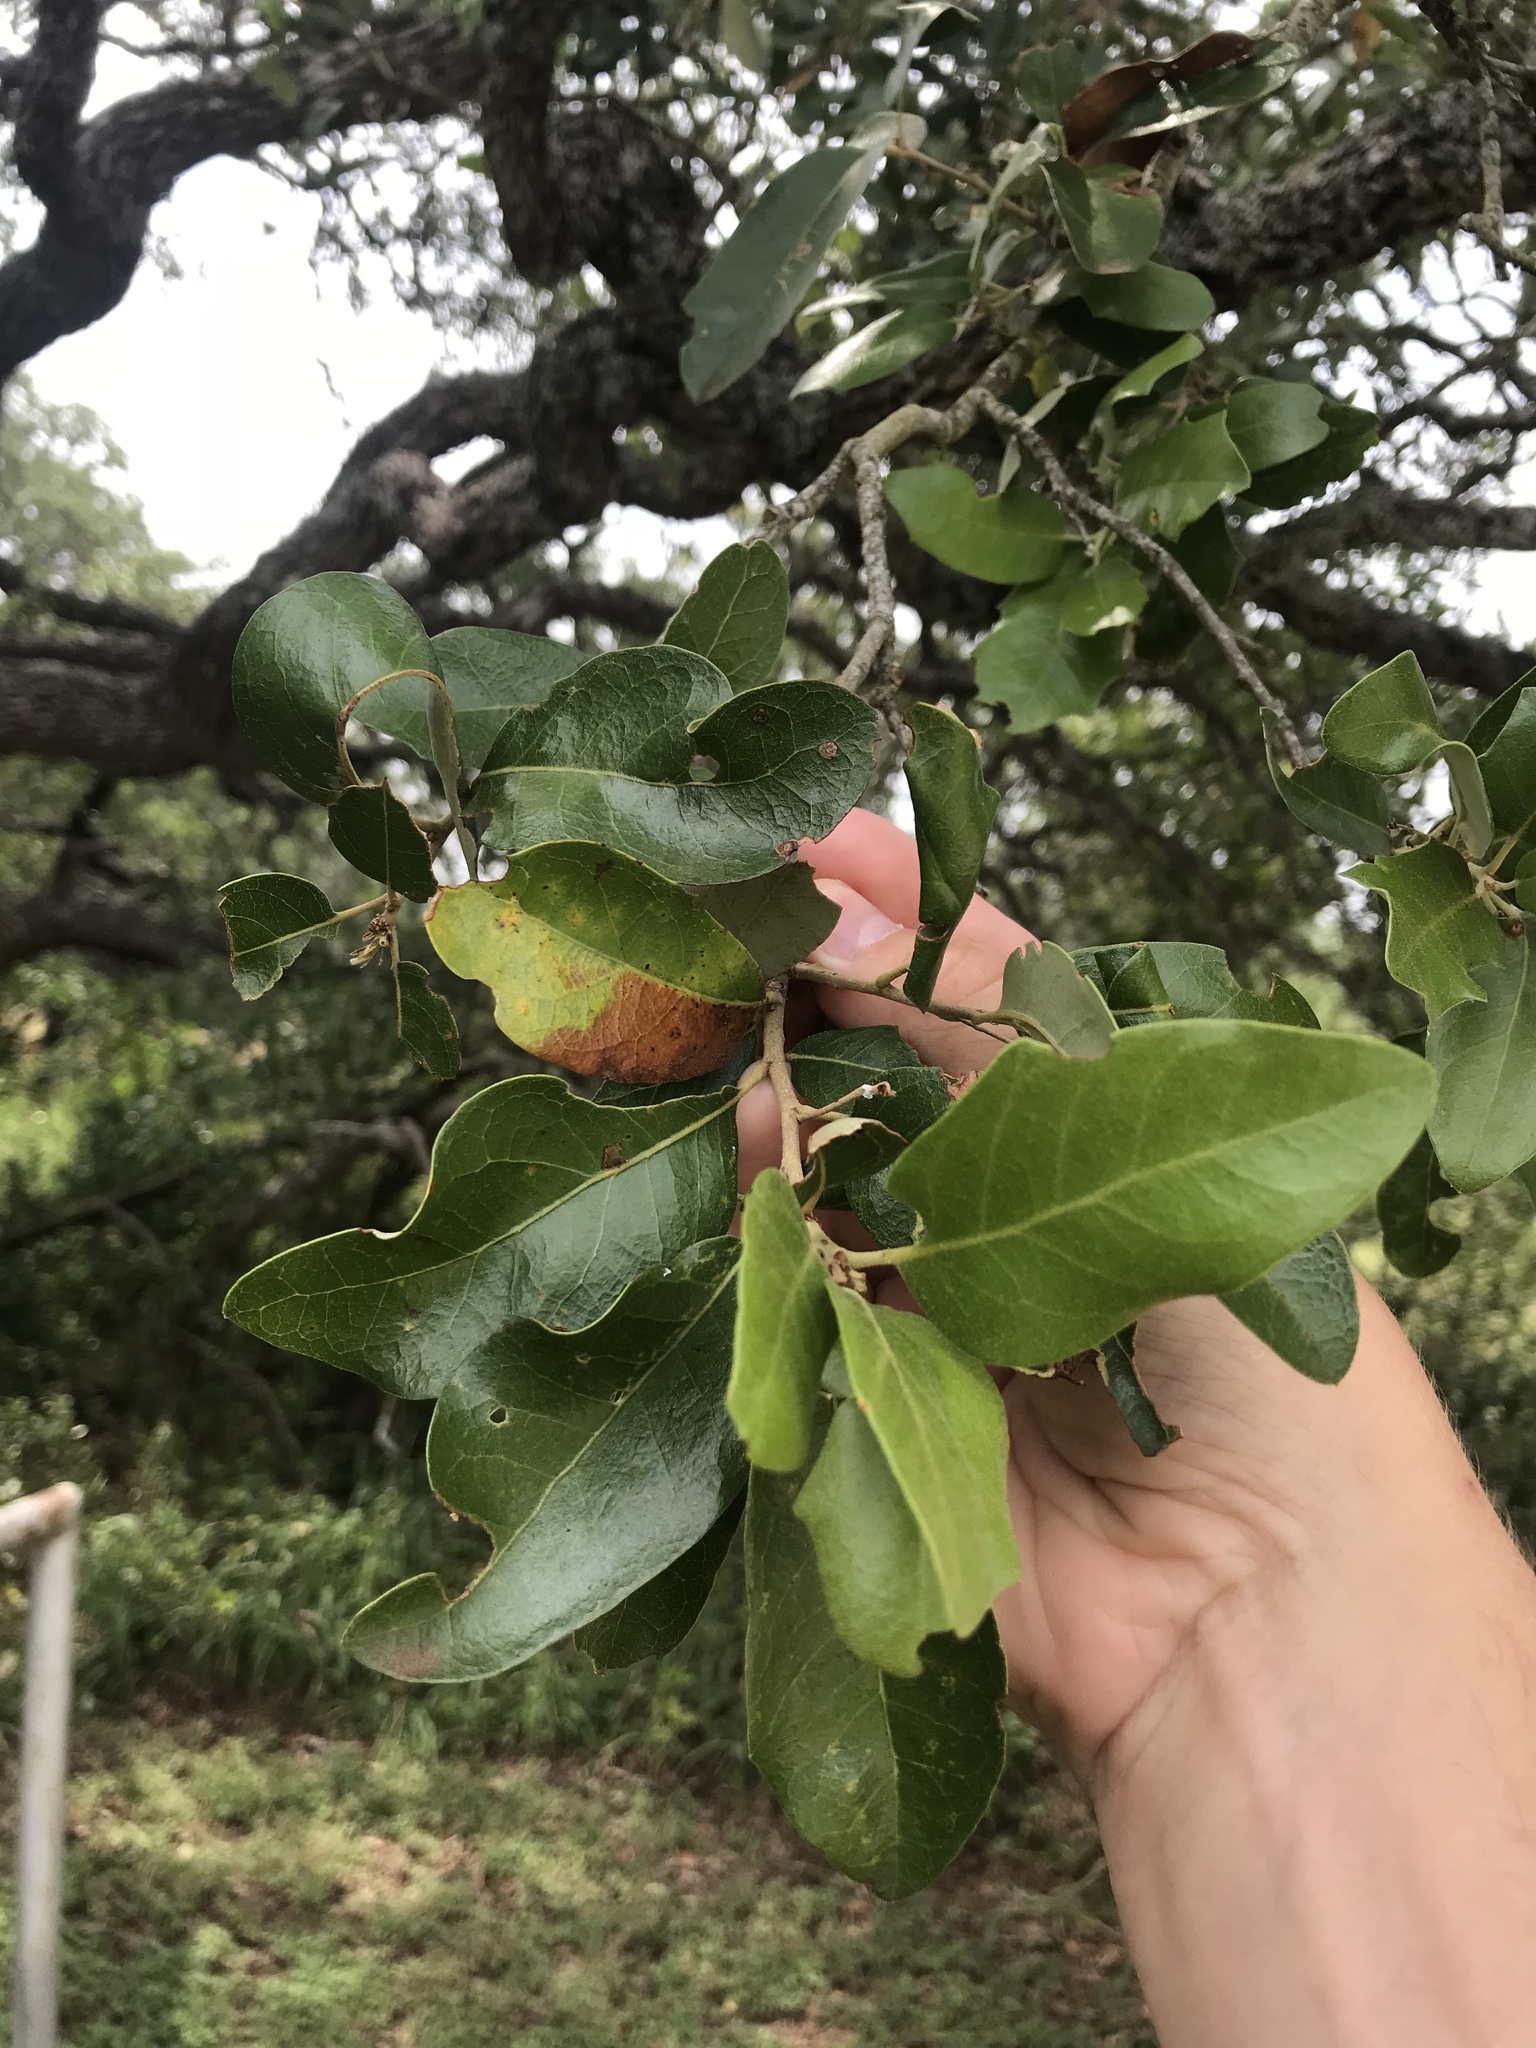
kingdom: Plantae
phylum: Tracheophyta
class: Magnoliopsida
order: Fagales
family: Fagaceae
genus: Quercus
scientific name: Quercus fusiformis
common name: Texas live oak
